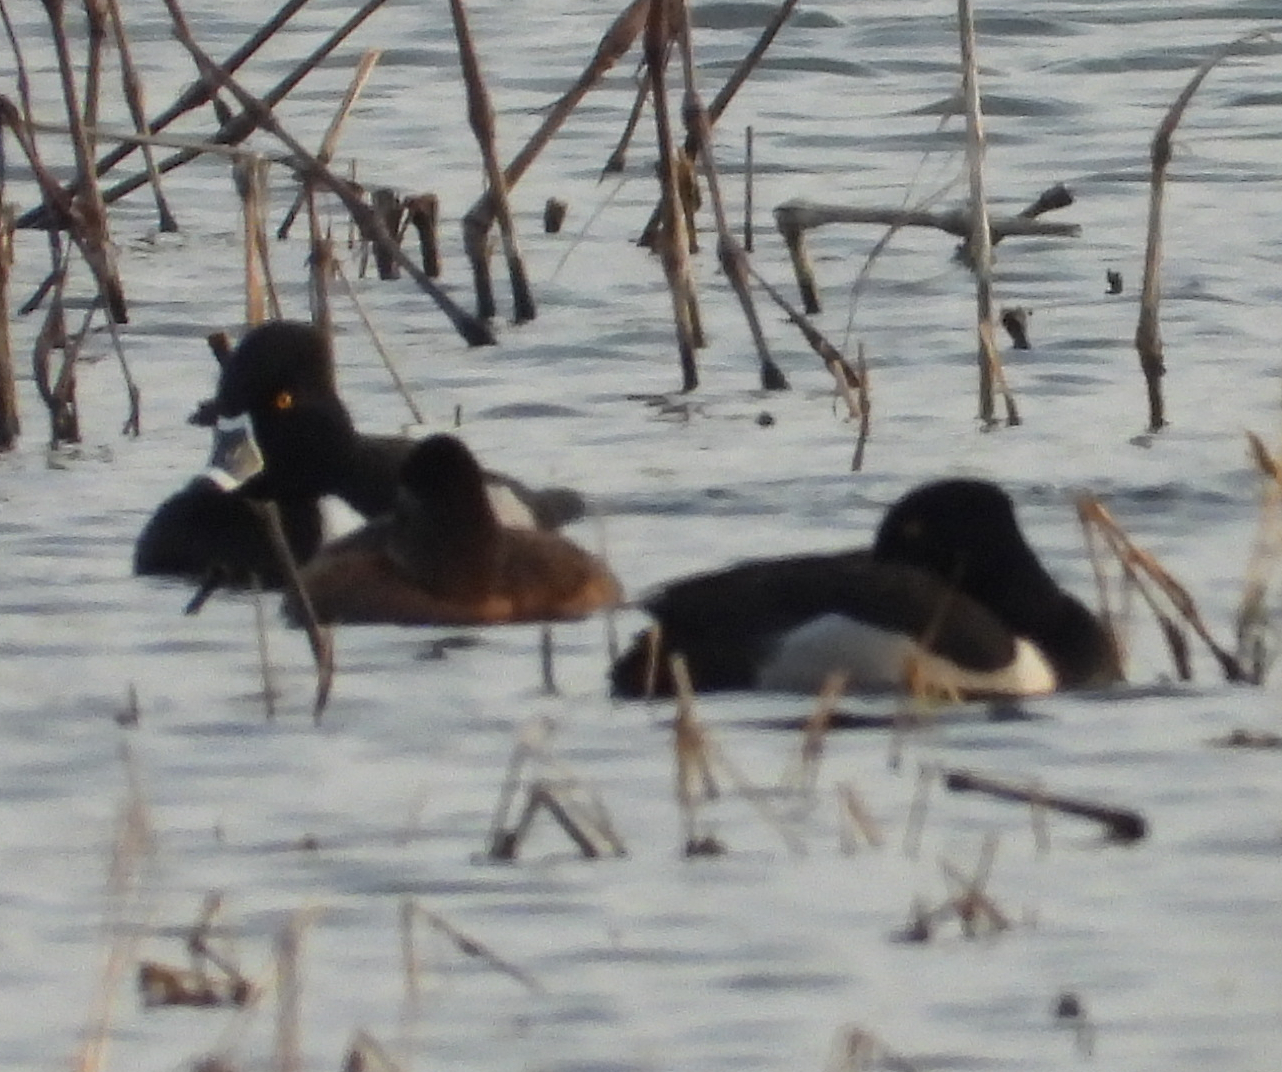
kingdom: Animalia
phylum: Chordata
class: Aves
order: Anseriformes
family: Anatidae
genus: Aythya
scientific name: Aythya collaris
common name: Ring-necked duck
